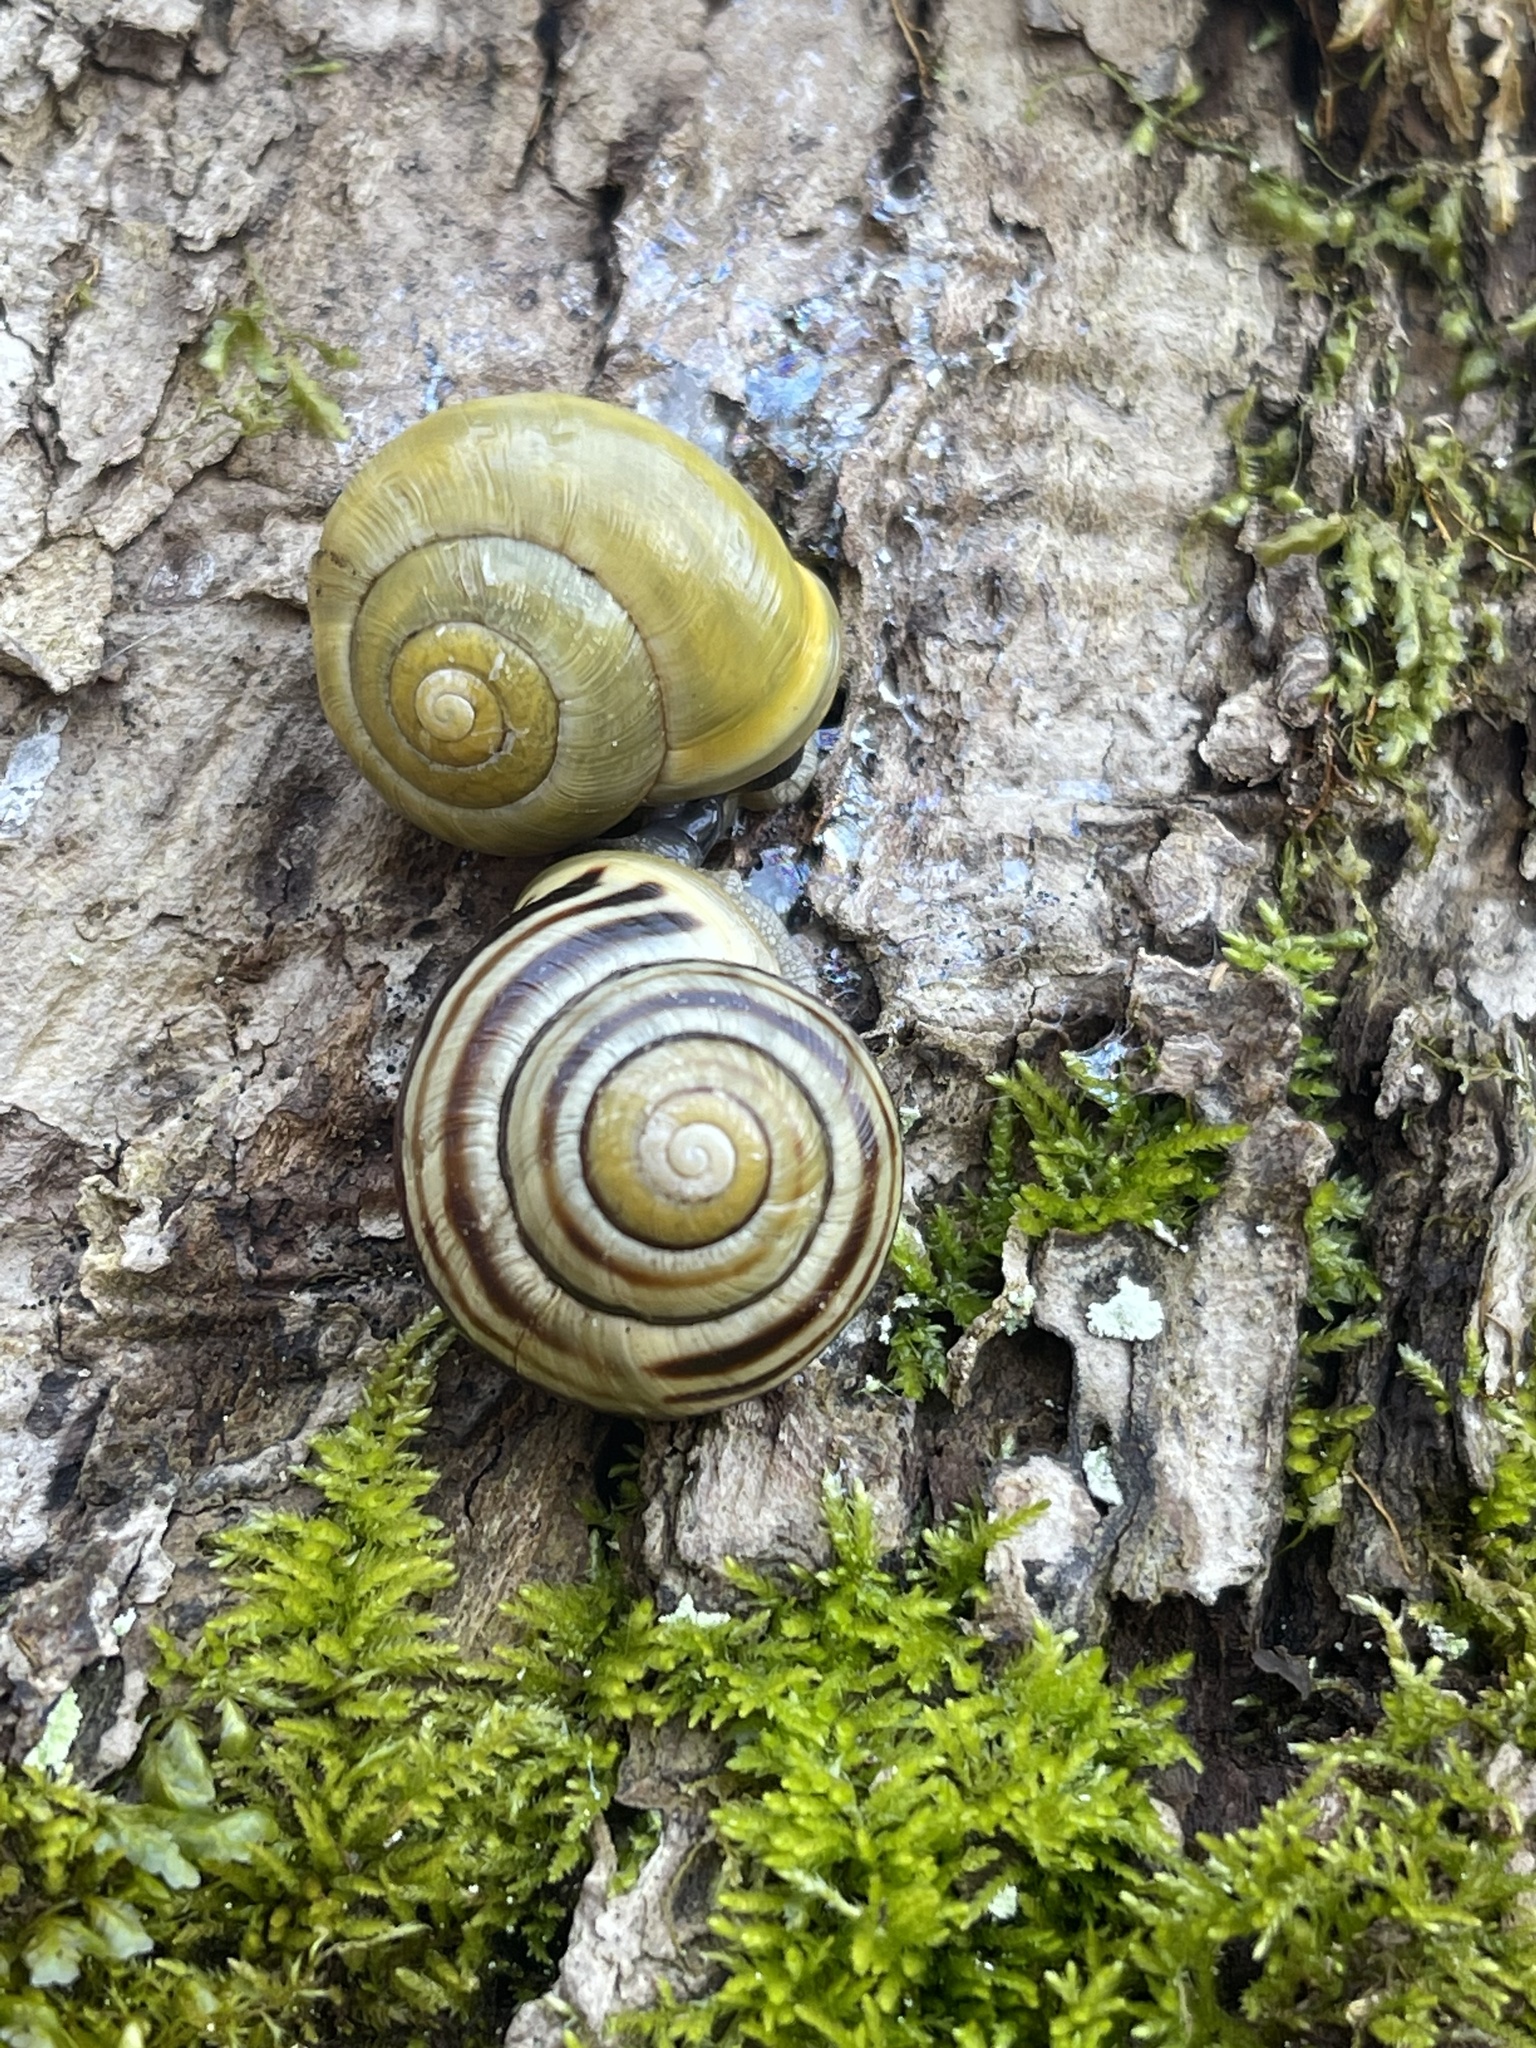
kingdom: Animalia
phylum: Mollusca
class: Gastropoda
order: Stylommatophora
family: Helicidae
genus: Cepaea
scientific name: Cepaea hortensis
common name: White-lip gardensnail
